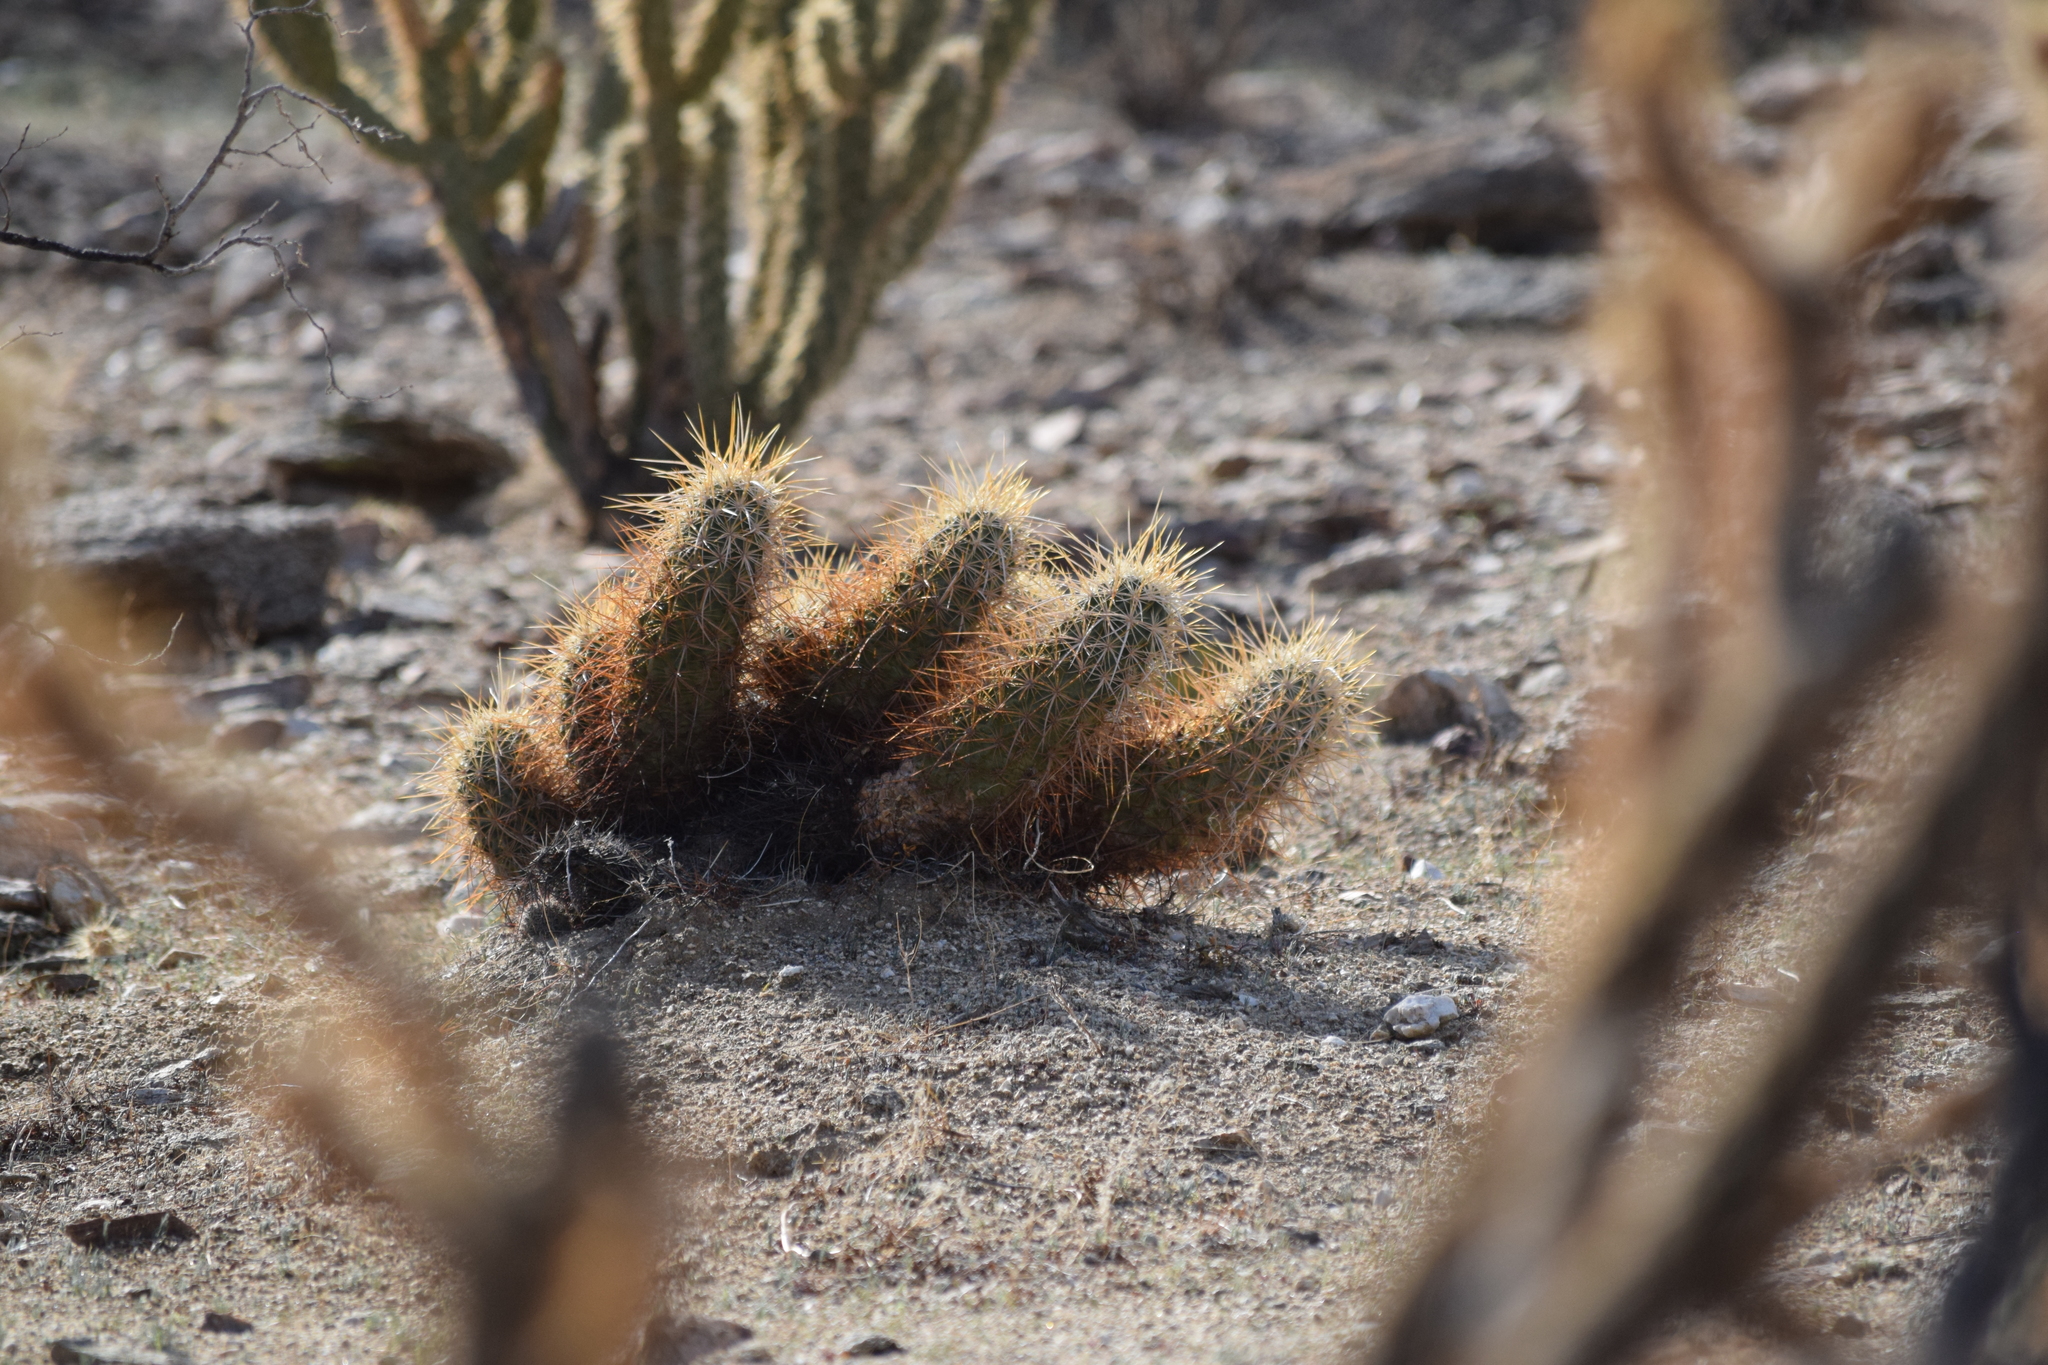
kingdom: Plantae
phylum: Tracheophyta
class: Magnoliopsida
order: Caryophyllales
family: Cactaceae
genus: Echinocereus
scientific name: Echinocereus engelmannii
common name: Engelmann's hedgehog cactus
